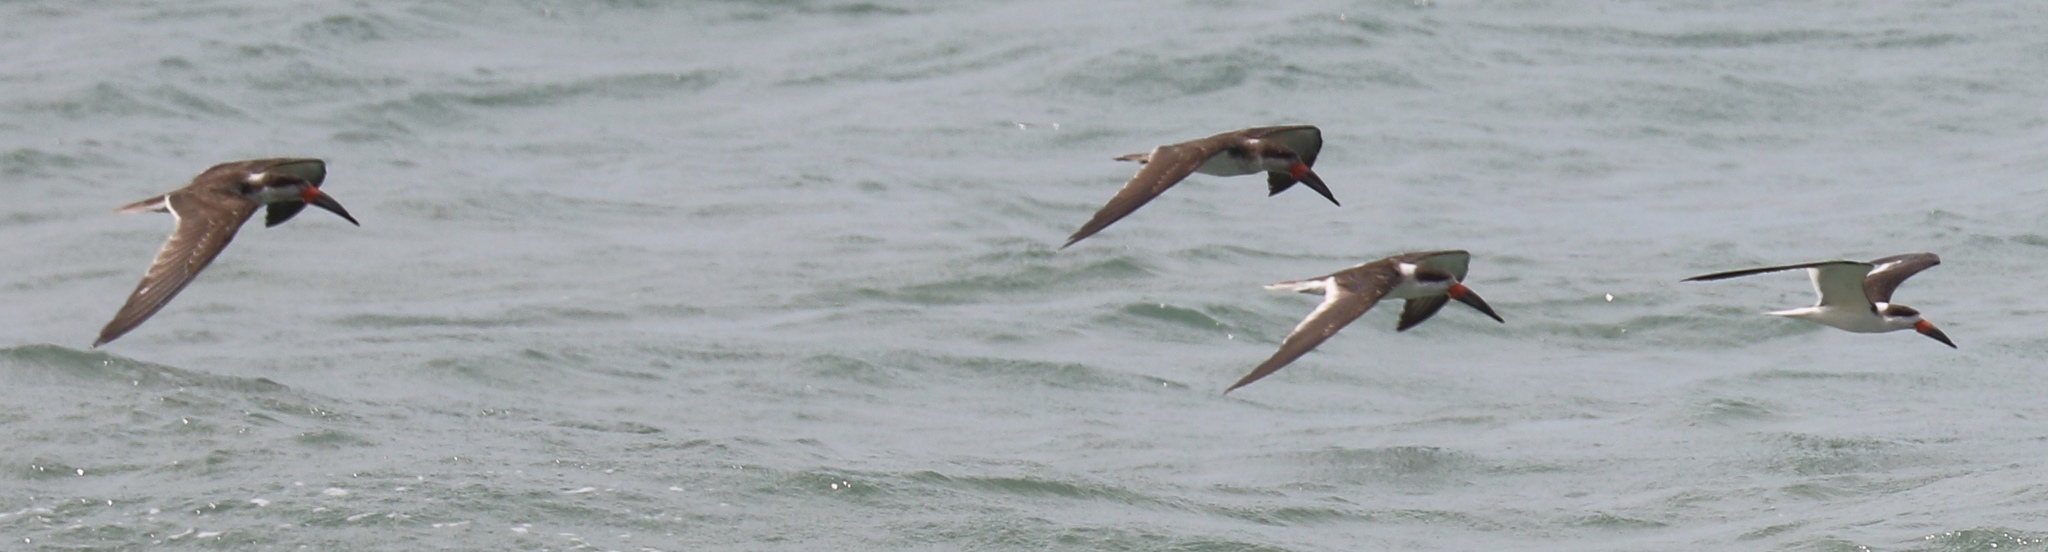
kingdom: Animalia
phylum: Chordata
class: Aves
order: Charadriiformes
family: Laridae
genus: Rynchops
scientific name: Rynchops niger
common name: Black skimmer
